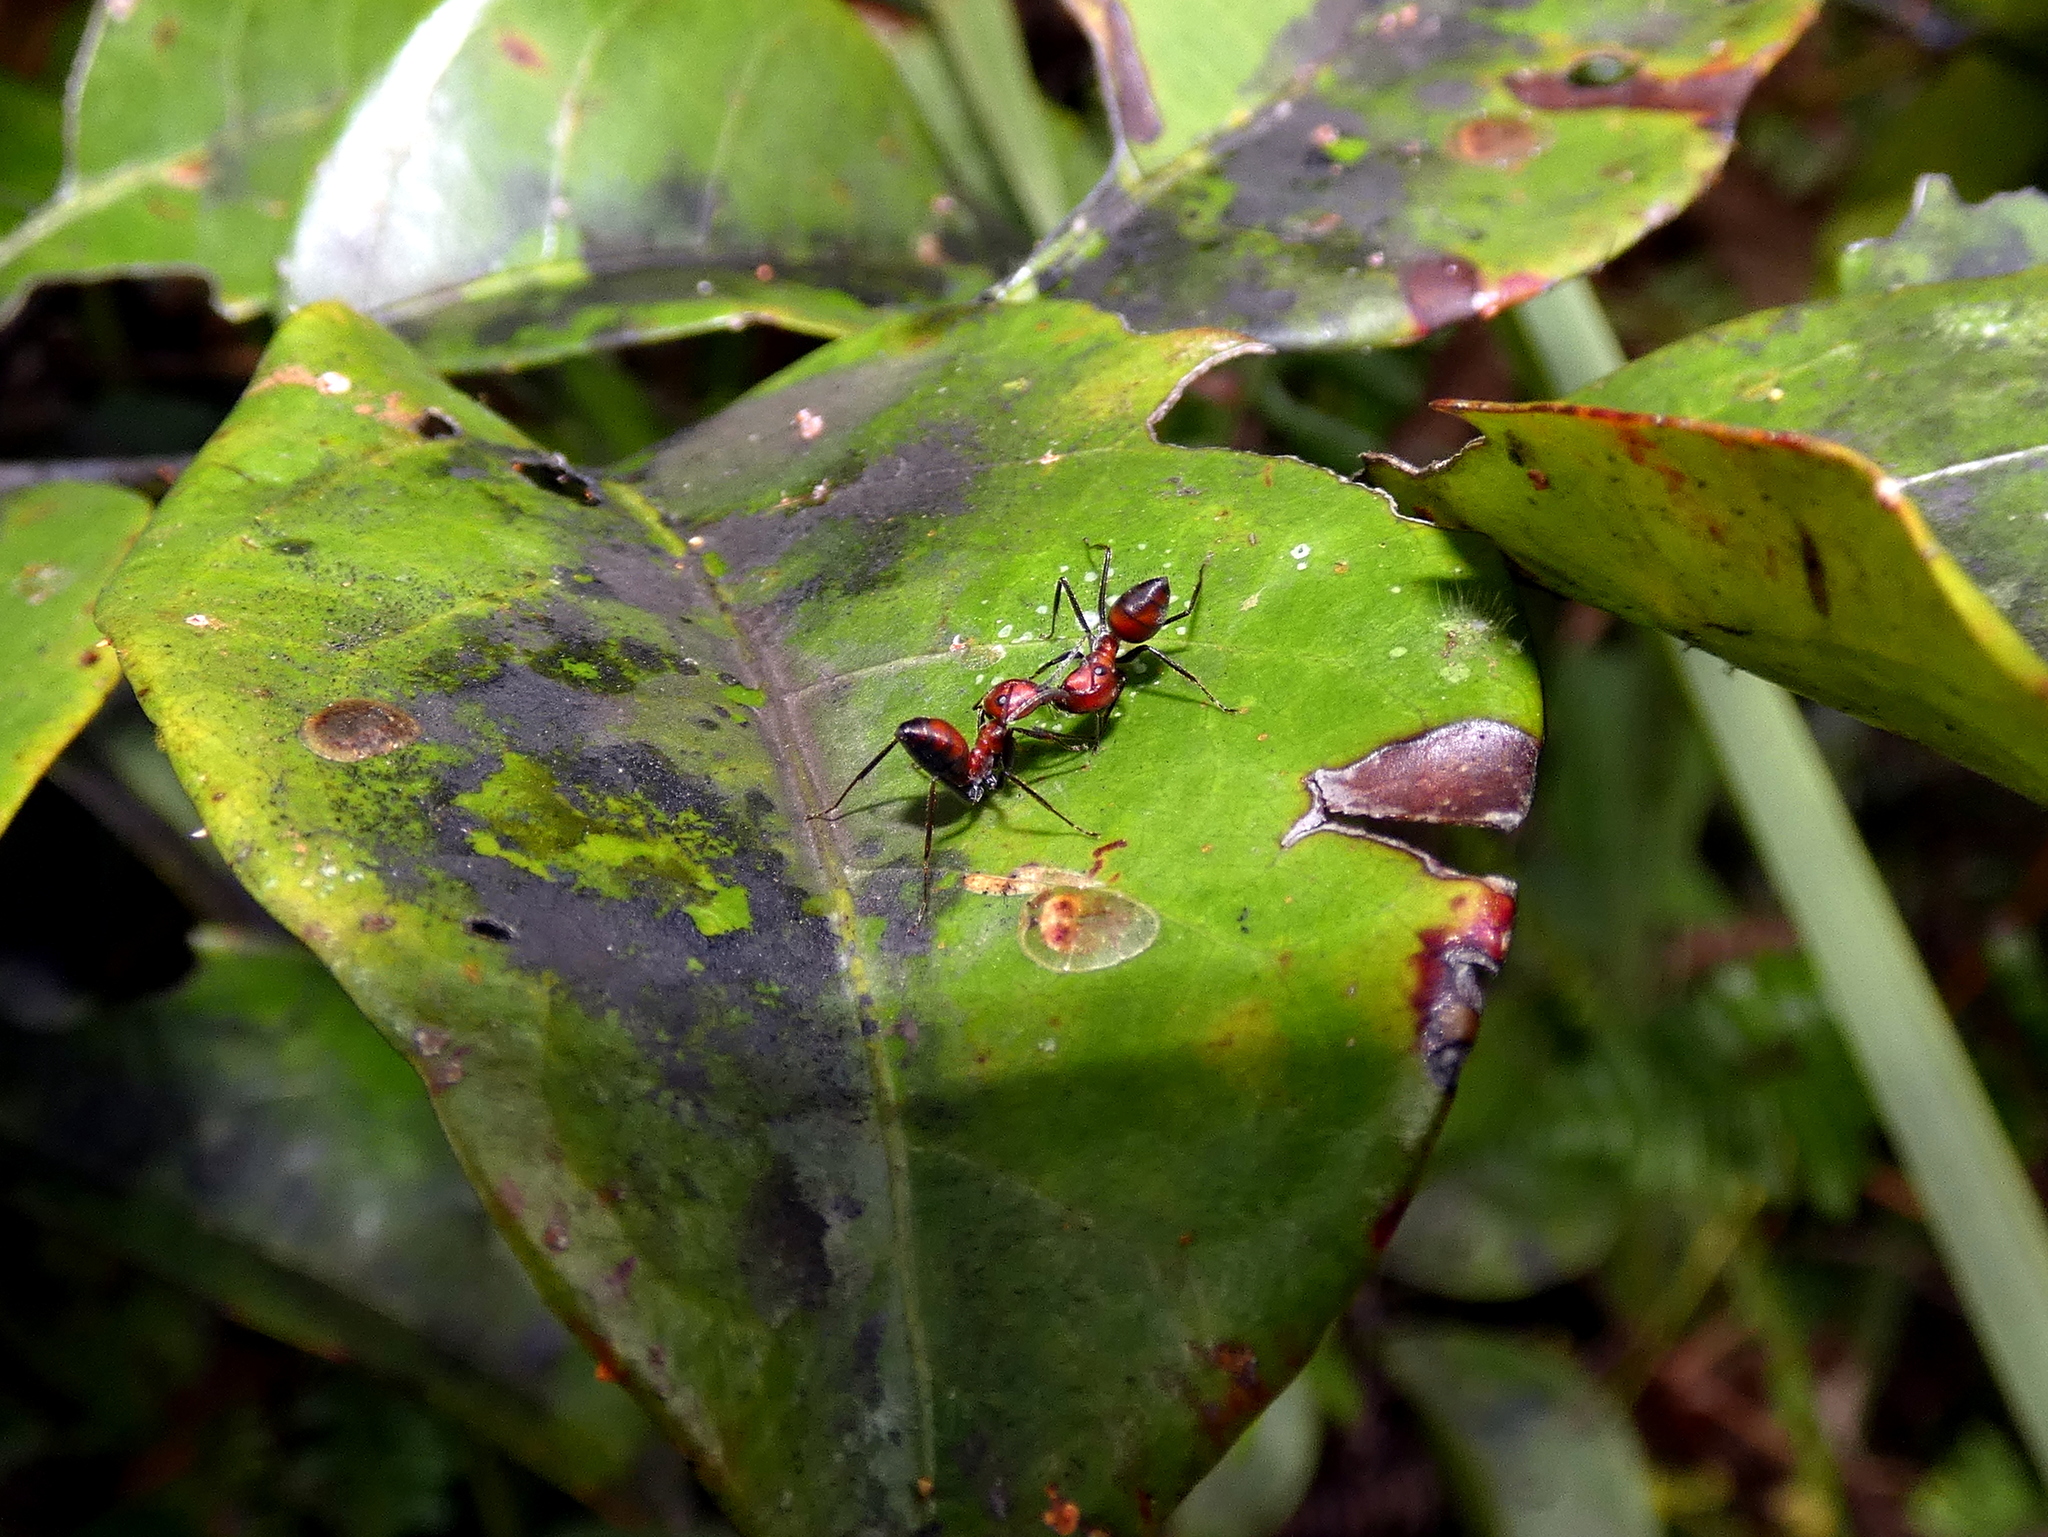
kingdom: Animalia
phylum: Arthropoda
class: Insecta
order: Hymenoptera
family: Formicidae
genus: Colobopsis
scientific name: Colobopsis explodens
